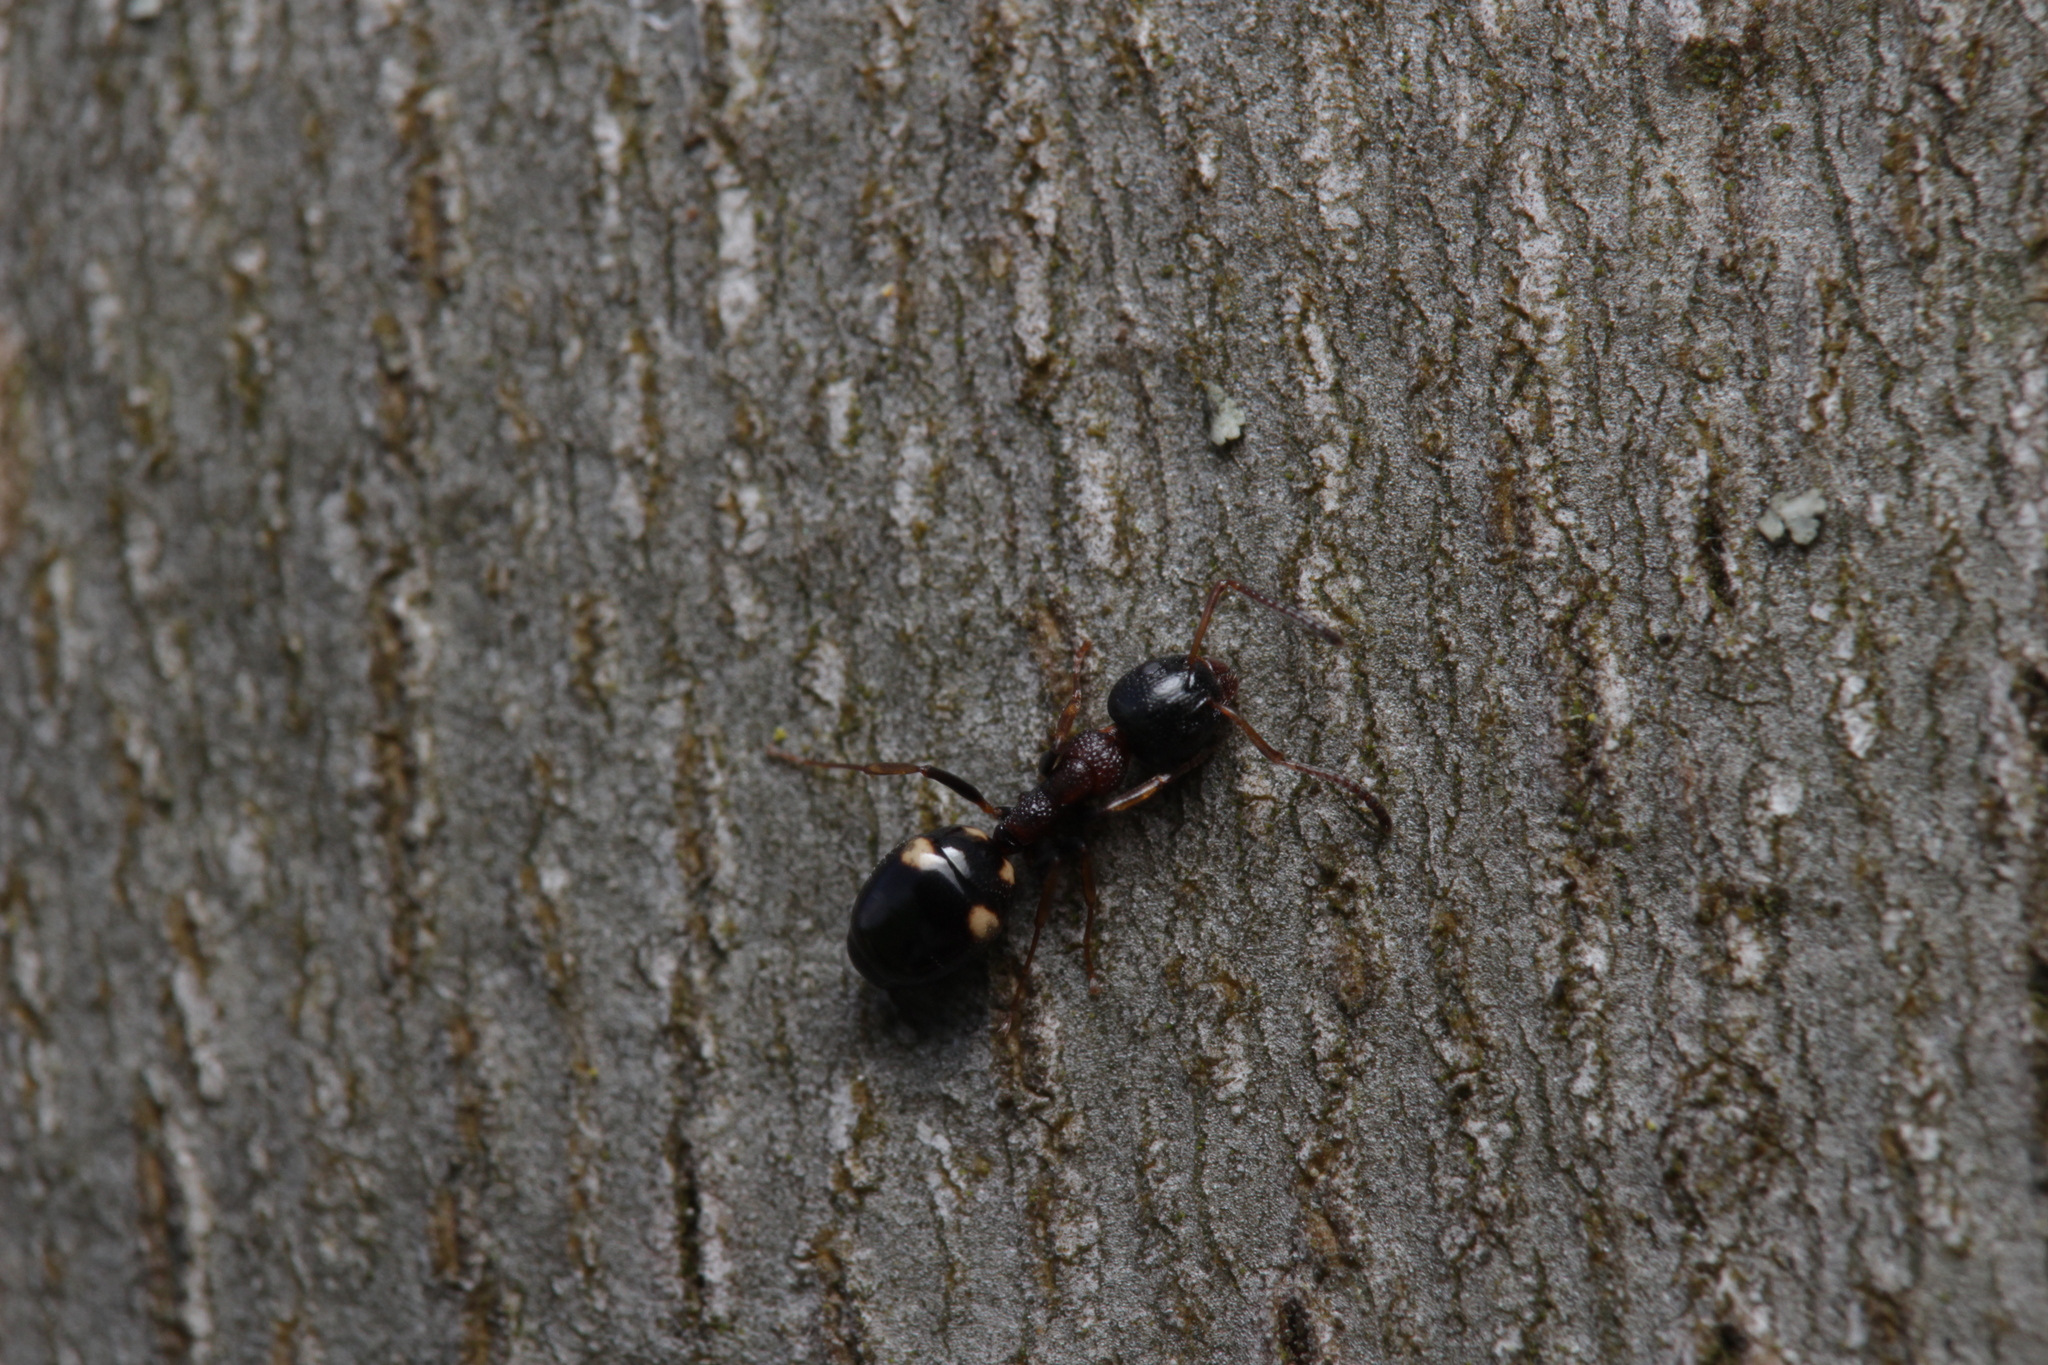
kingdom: Animalia
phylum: Arthropoda
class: Insecta
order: Hymenoptera
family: Formicidae
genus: Dolichoderus
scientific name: Dolichoderus quadripunctatus
